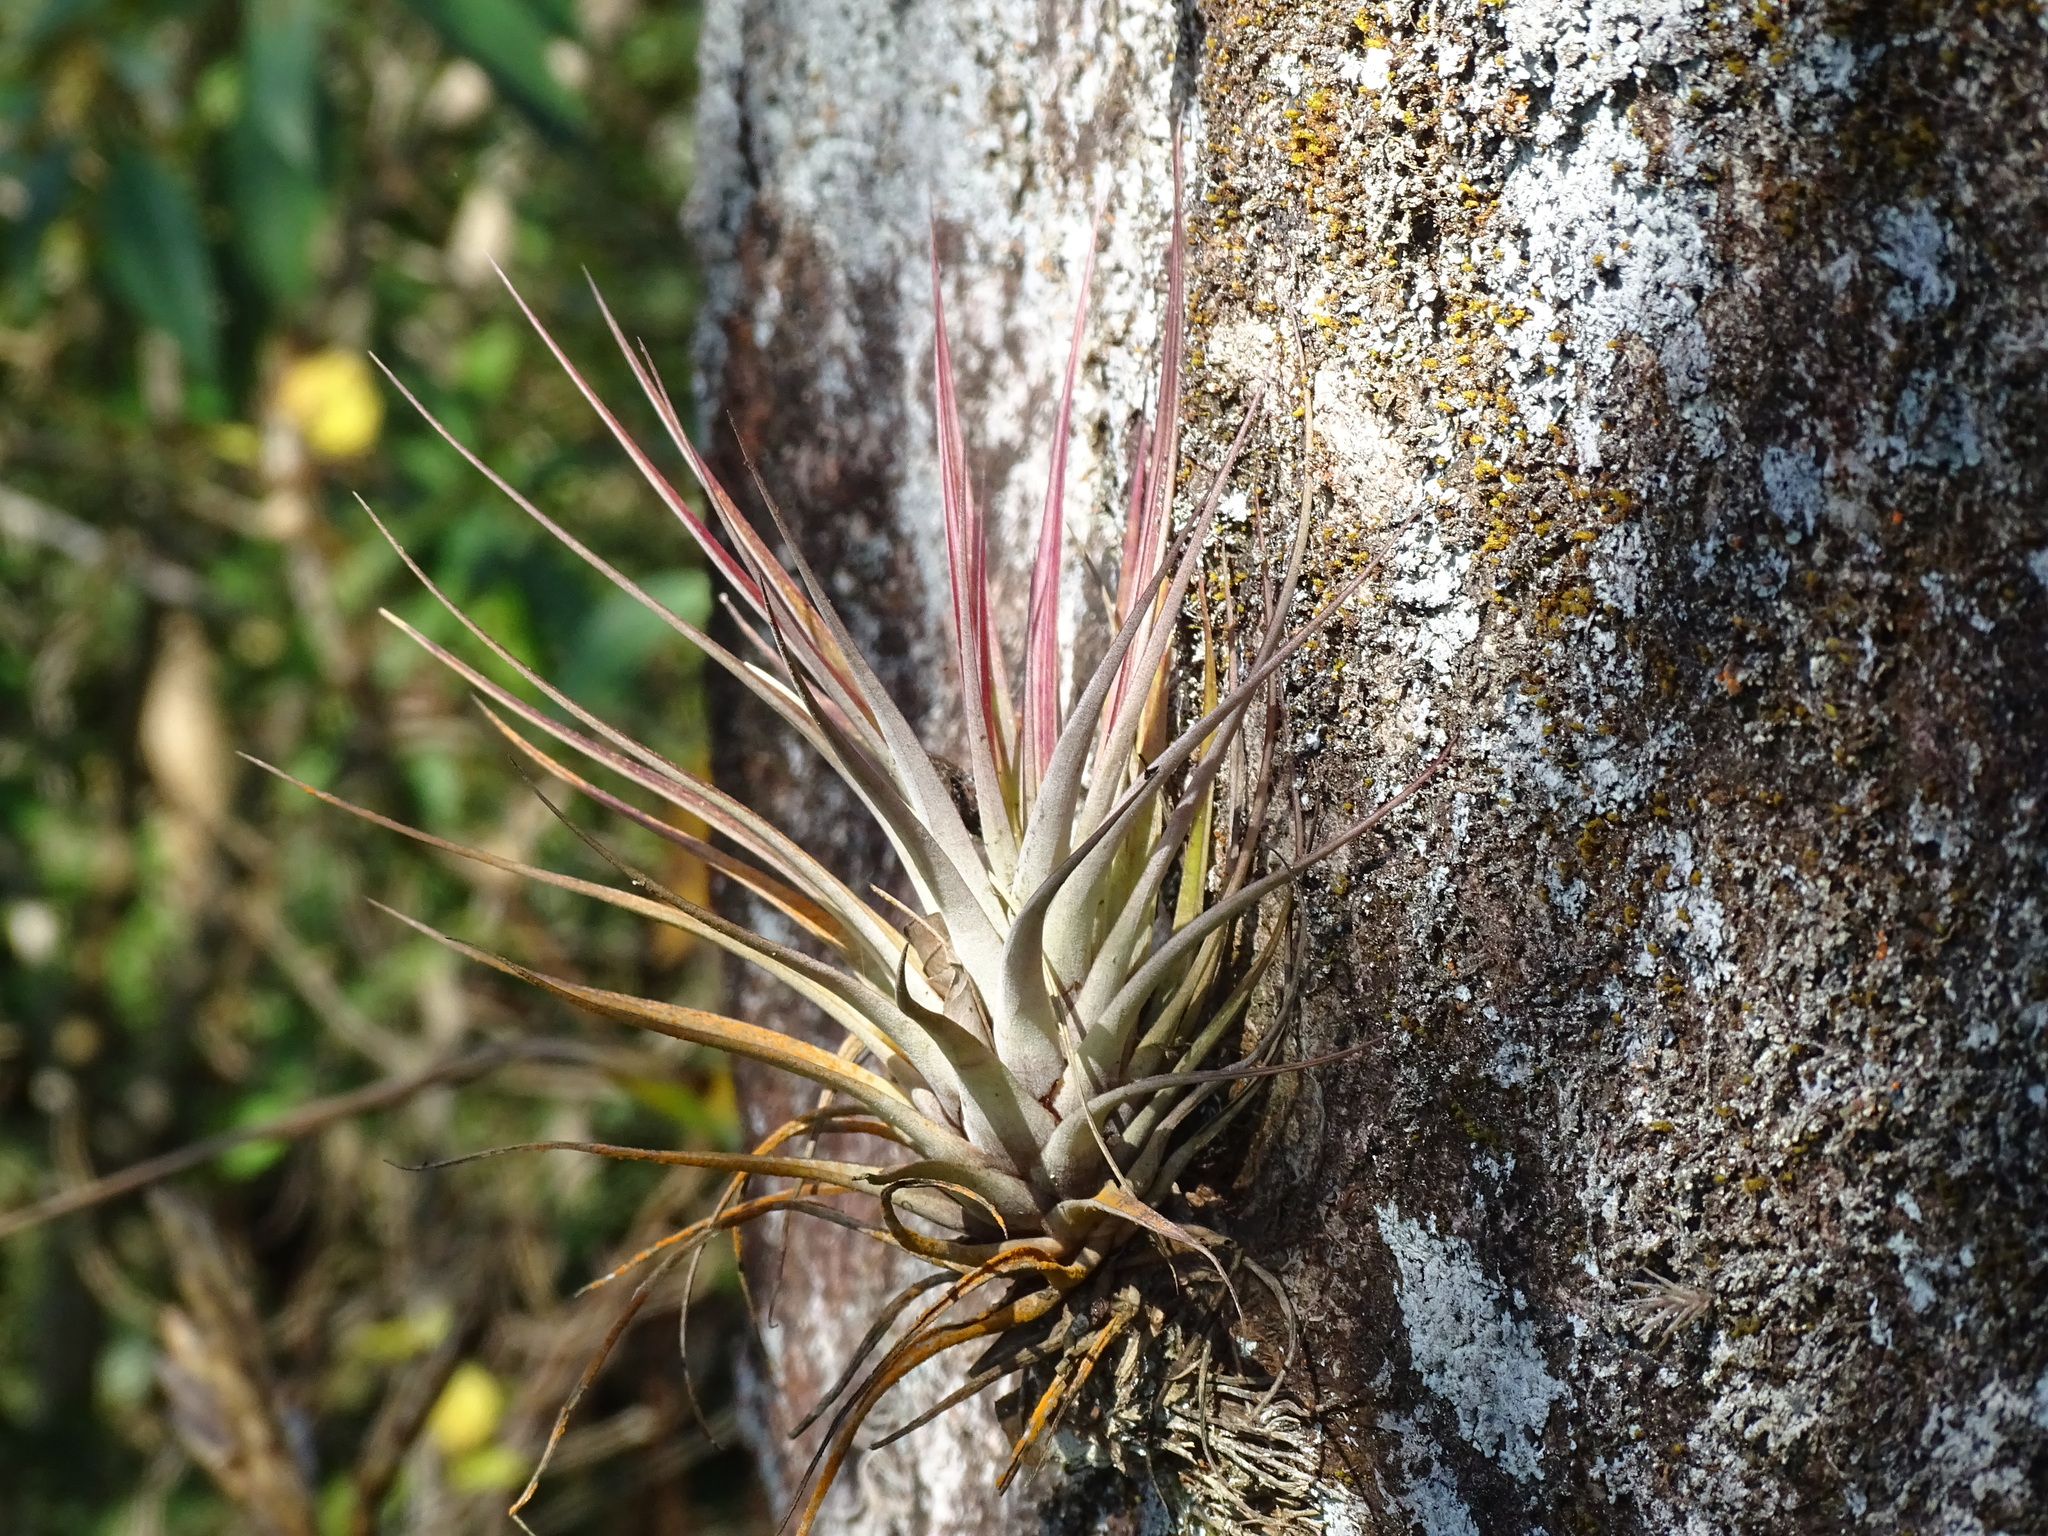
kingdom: Plantae
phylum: Tracheophyta
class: Liliopsida
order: Poales
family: Bromeliaceae
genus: Tillandsia
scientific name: Tillandsia fasciculata
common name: Giant airplant
